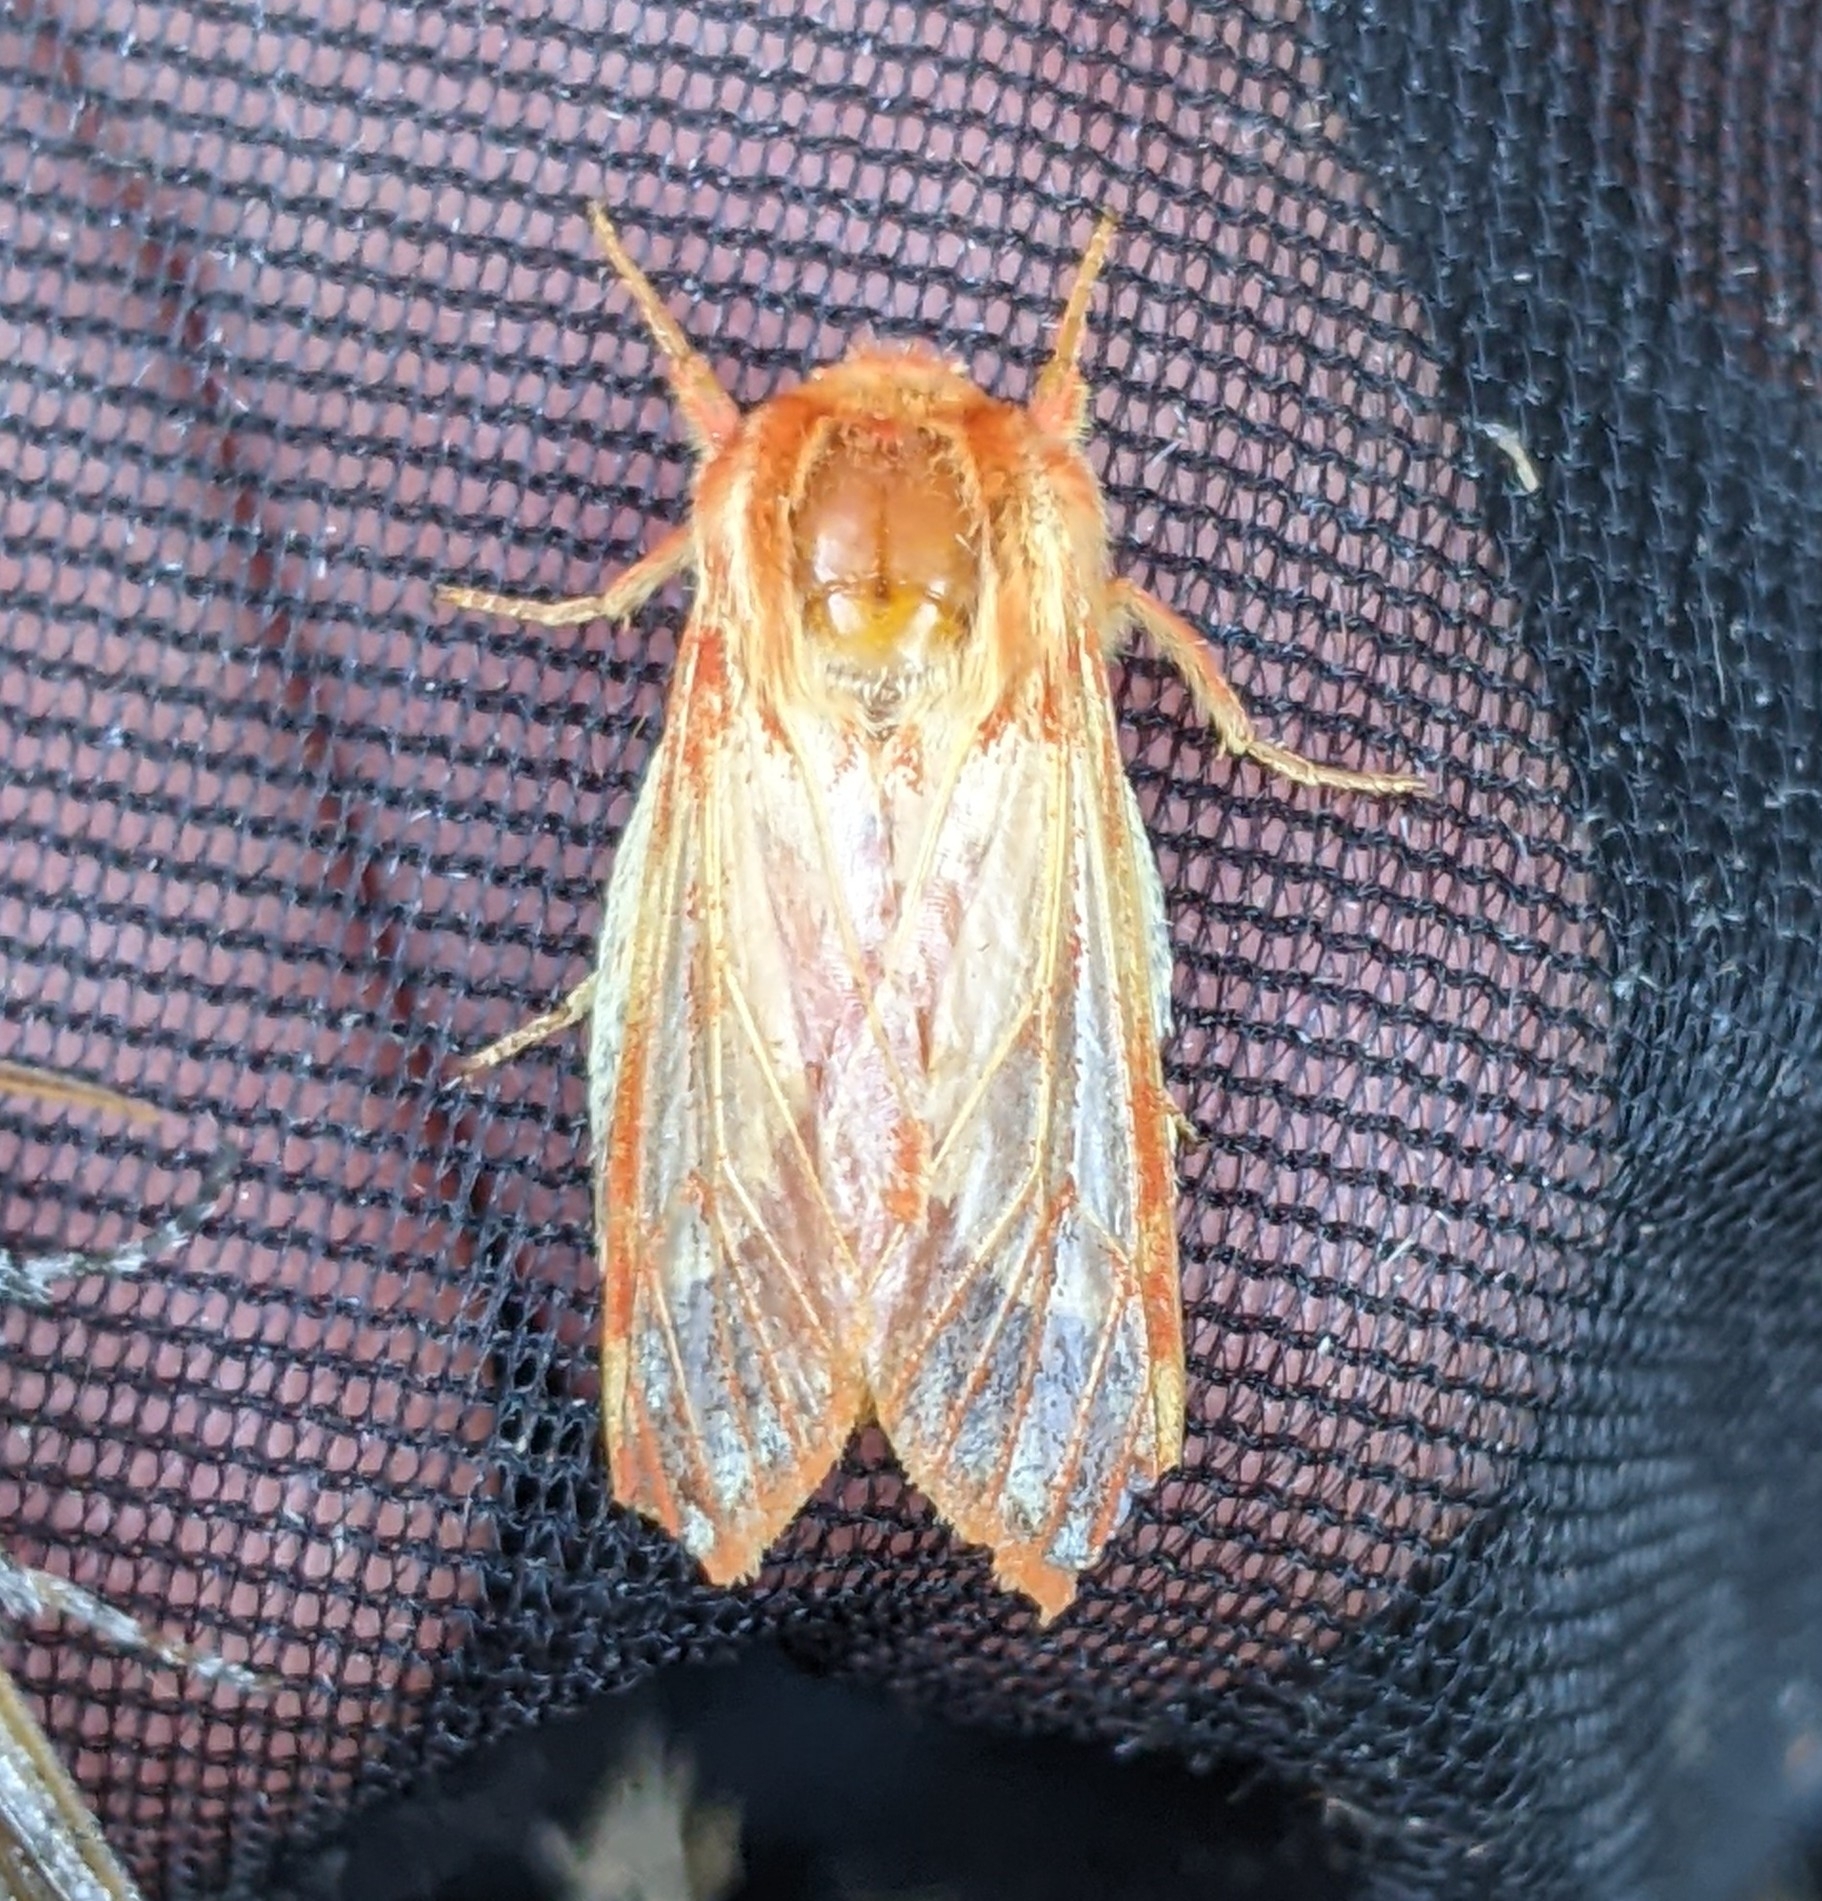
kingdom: Animalia
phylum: Arthropoda
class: Insecta
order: Lepidoptera
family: Erebidae
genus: Lophocampa
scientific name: Lophocampa roseata
